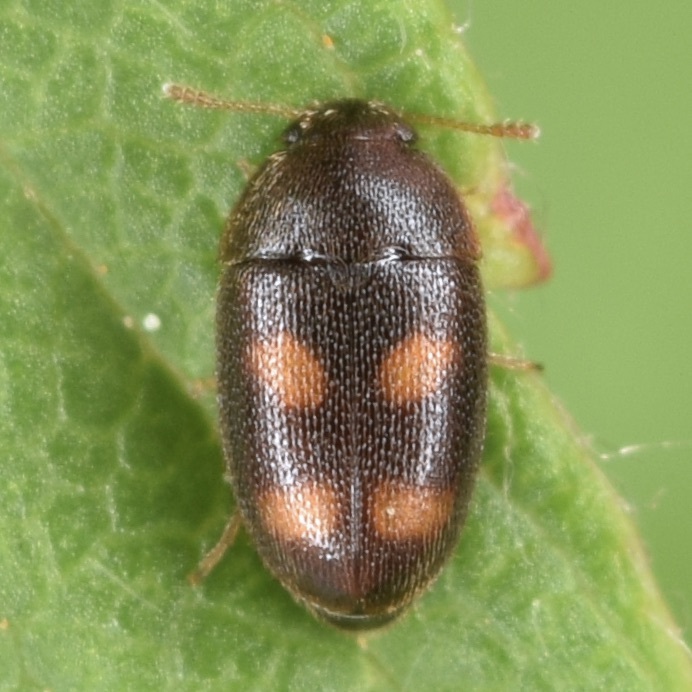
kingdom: Animalia
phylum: Arthropoda
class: Insecta
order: Coleoptera
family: Mycetophagidae
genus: Litargus
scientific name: Litargus tetraspilotus
